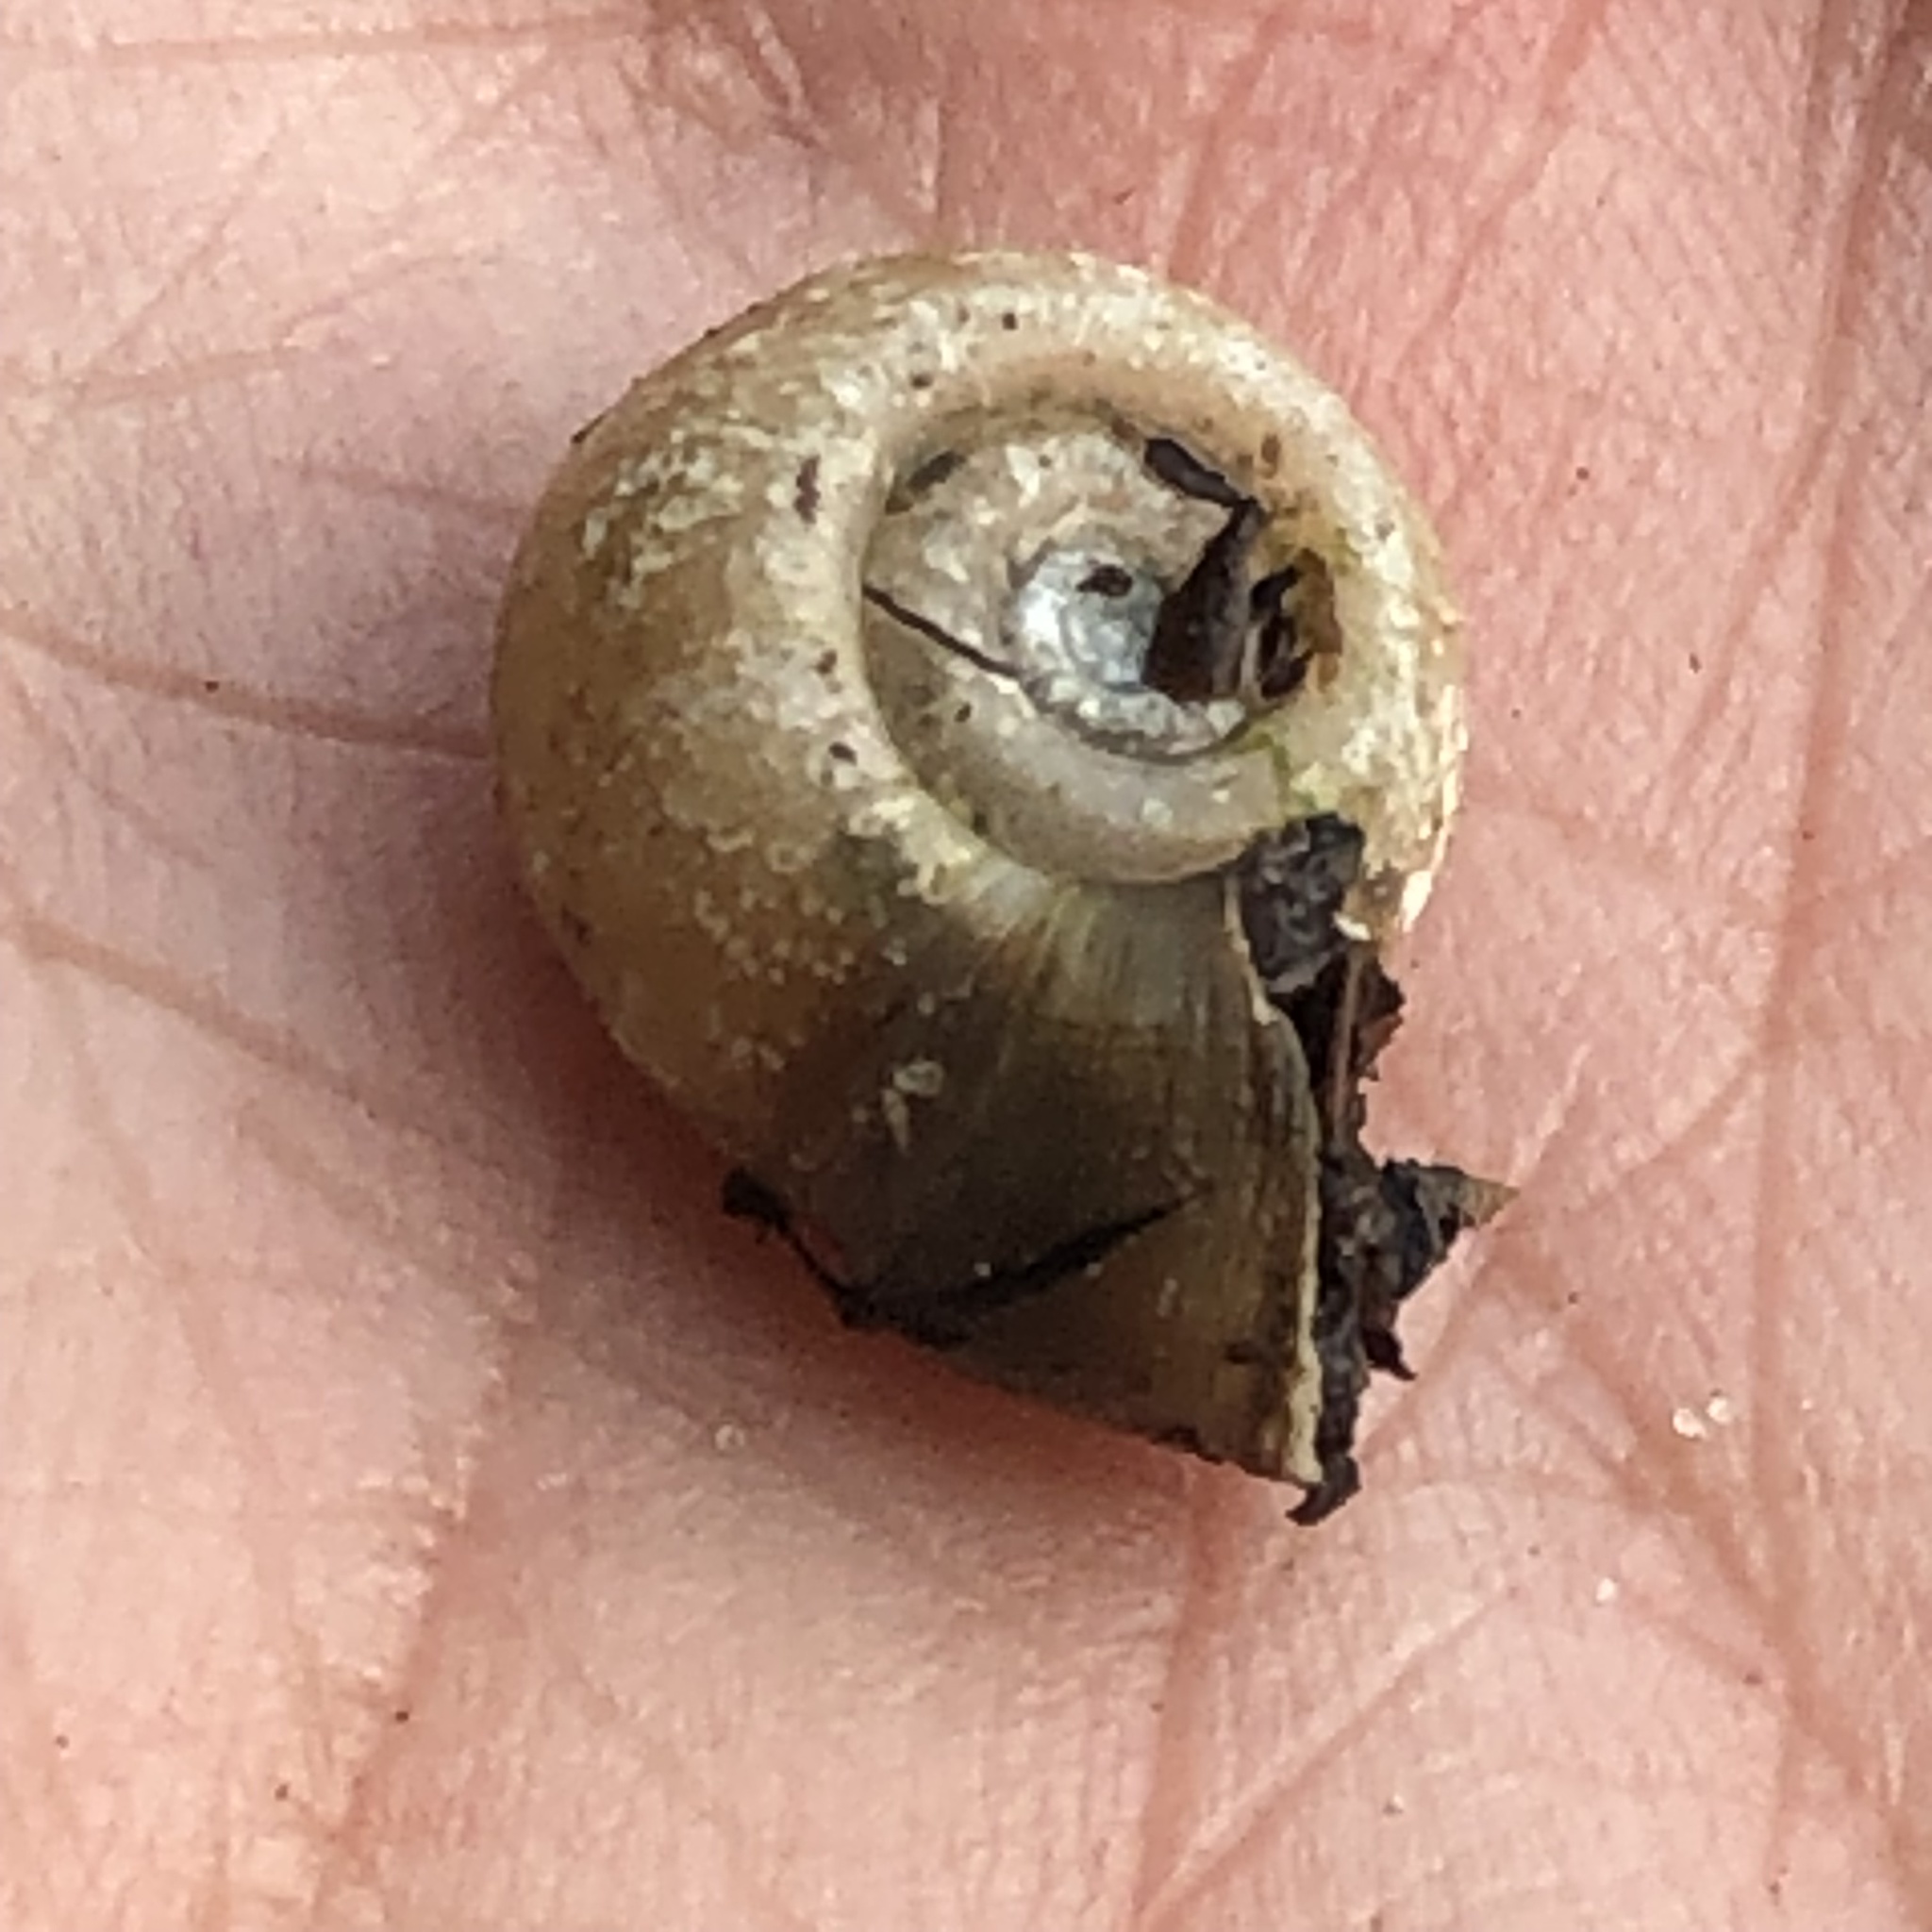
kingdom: Animalia
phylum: Mollusca
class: Gastropoda
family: Planorbidae
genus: Planorbella
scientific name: Planorbella campanulata
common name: Bellmouth ramshorn
